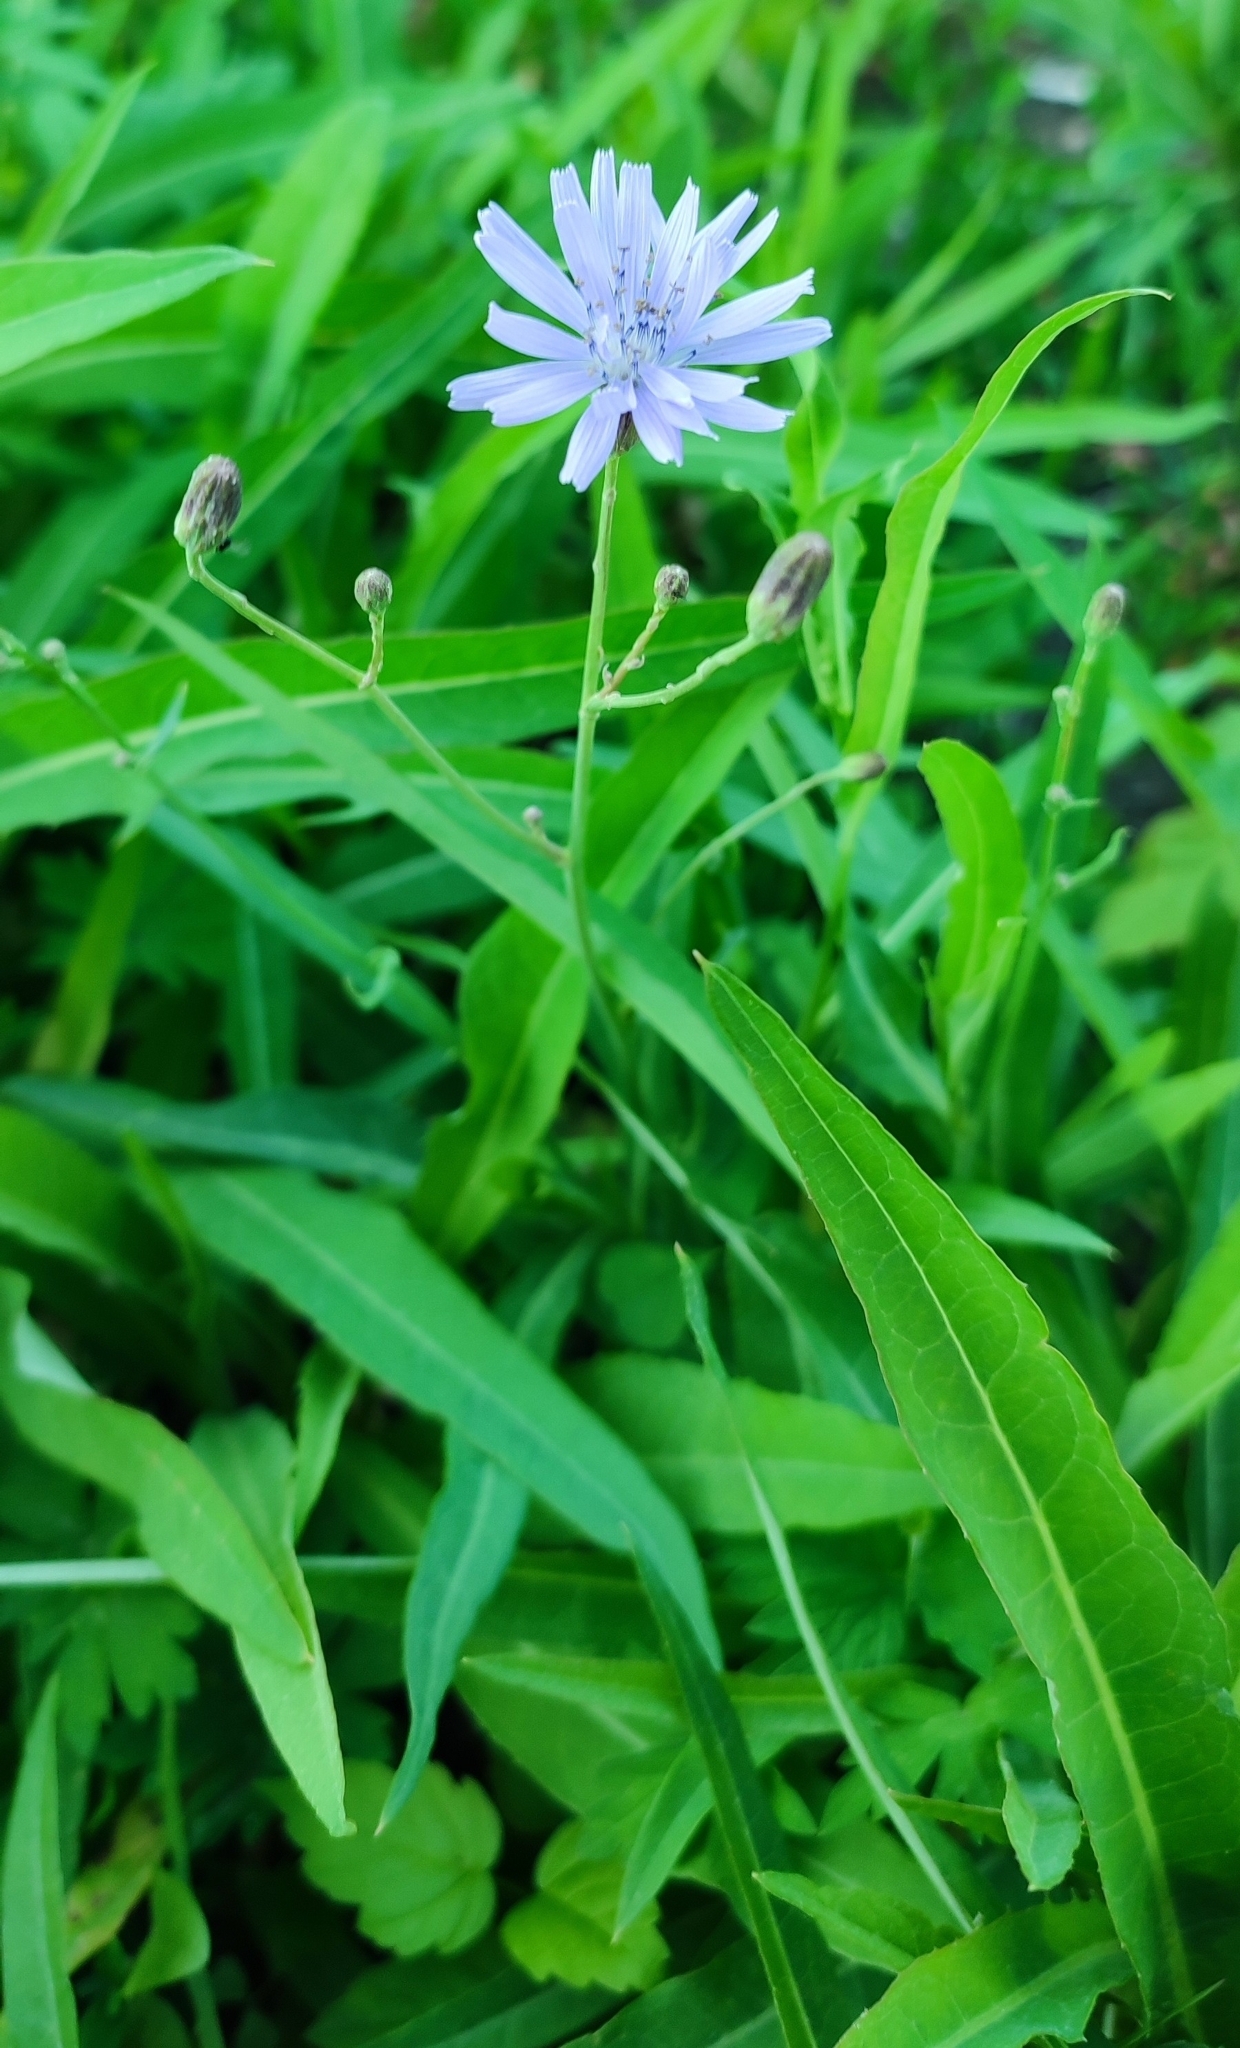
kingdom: Plantae
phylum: Tracheophyta
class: Magnoliopsida
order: Asterales
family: Asteraceae
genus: Lactuca
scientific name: Lactuca sibirica
